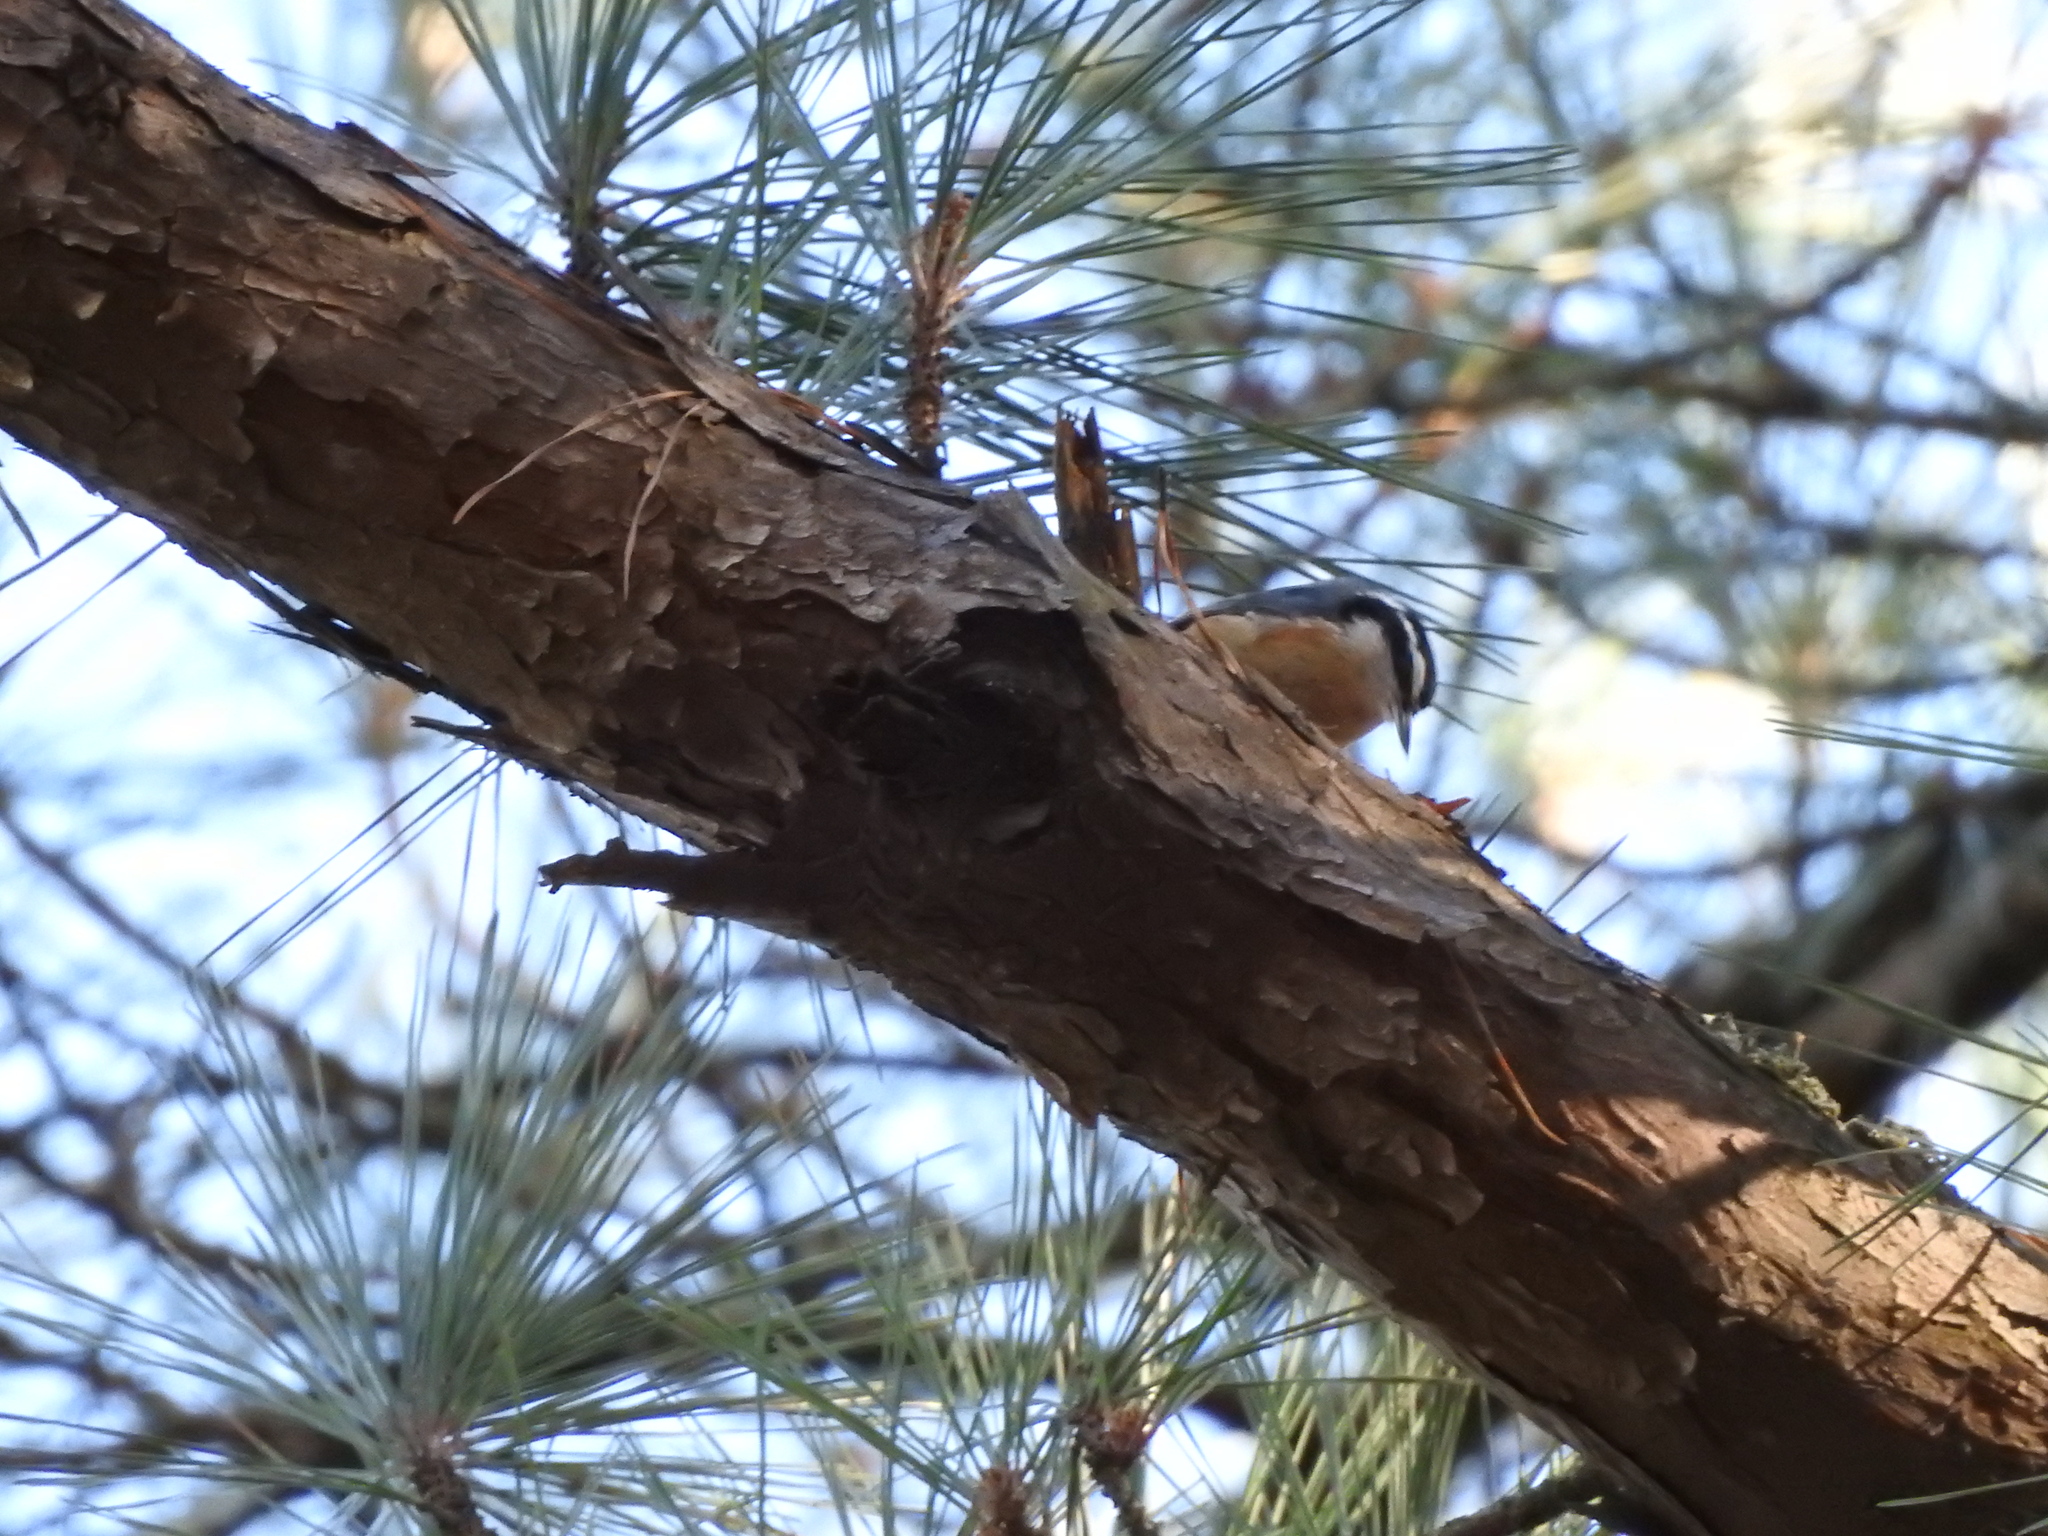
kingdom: Animalia
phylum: Chordata
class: Aves
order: Passeriformes
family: Sittidae
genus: Sitta
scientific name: Sitta canadensis
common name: Red-breasted nuthatch
